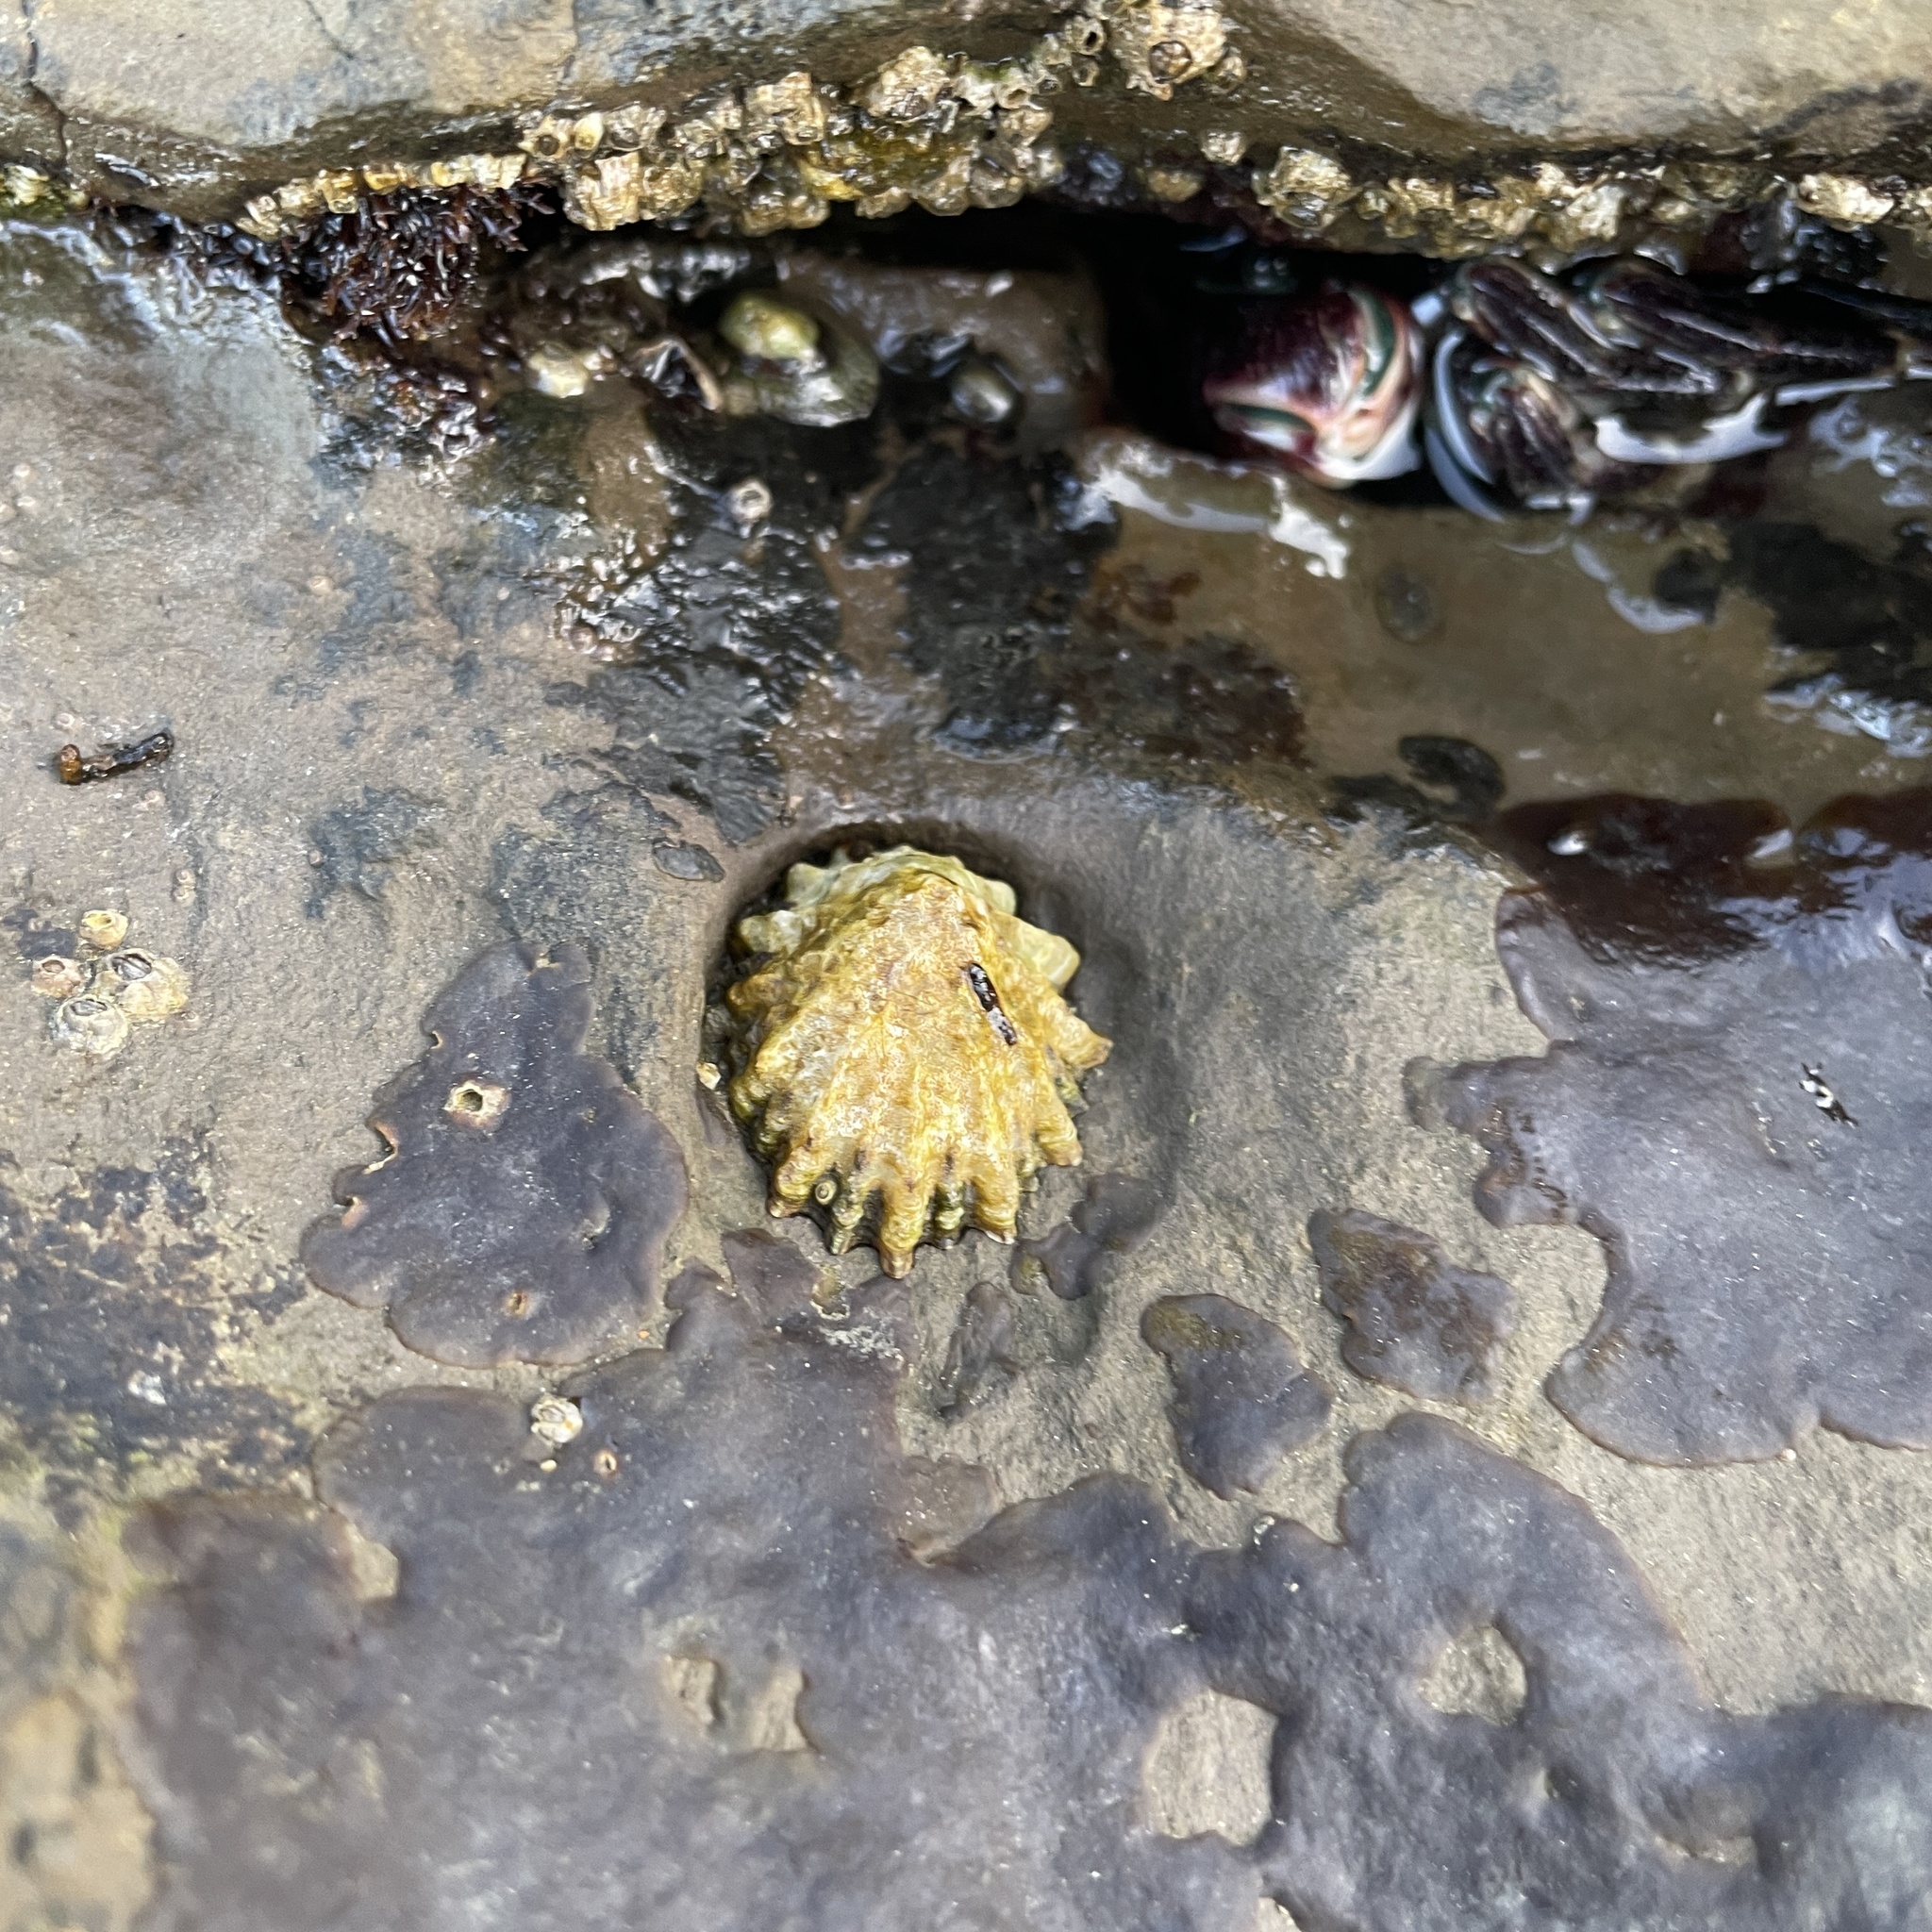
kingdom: Animalia
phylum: Mollusca
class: Gastropoda
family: Lottiidae
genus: Lottia
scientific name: Lottia scabra
